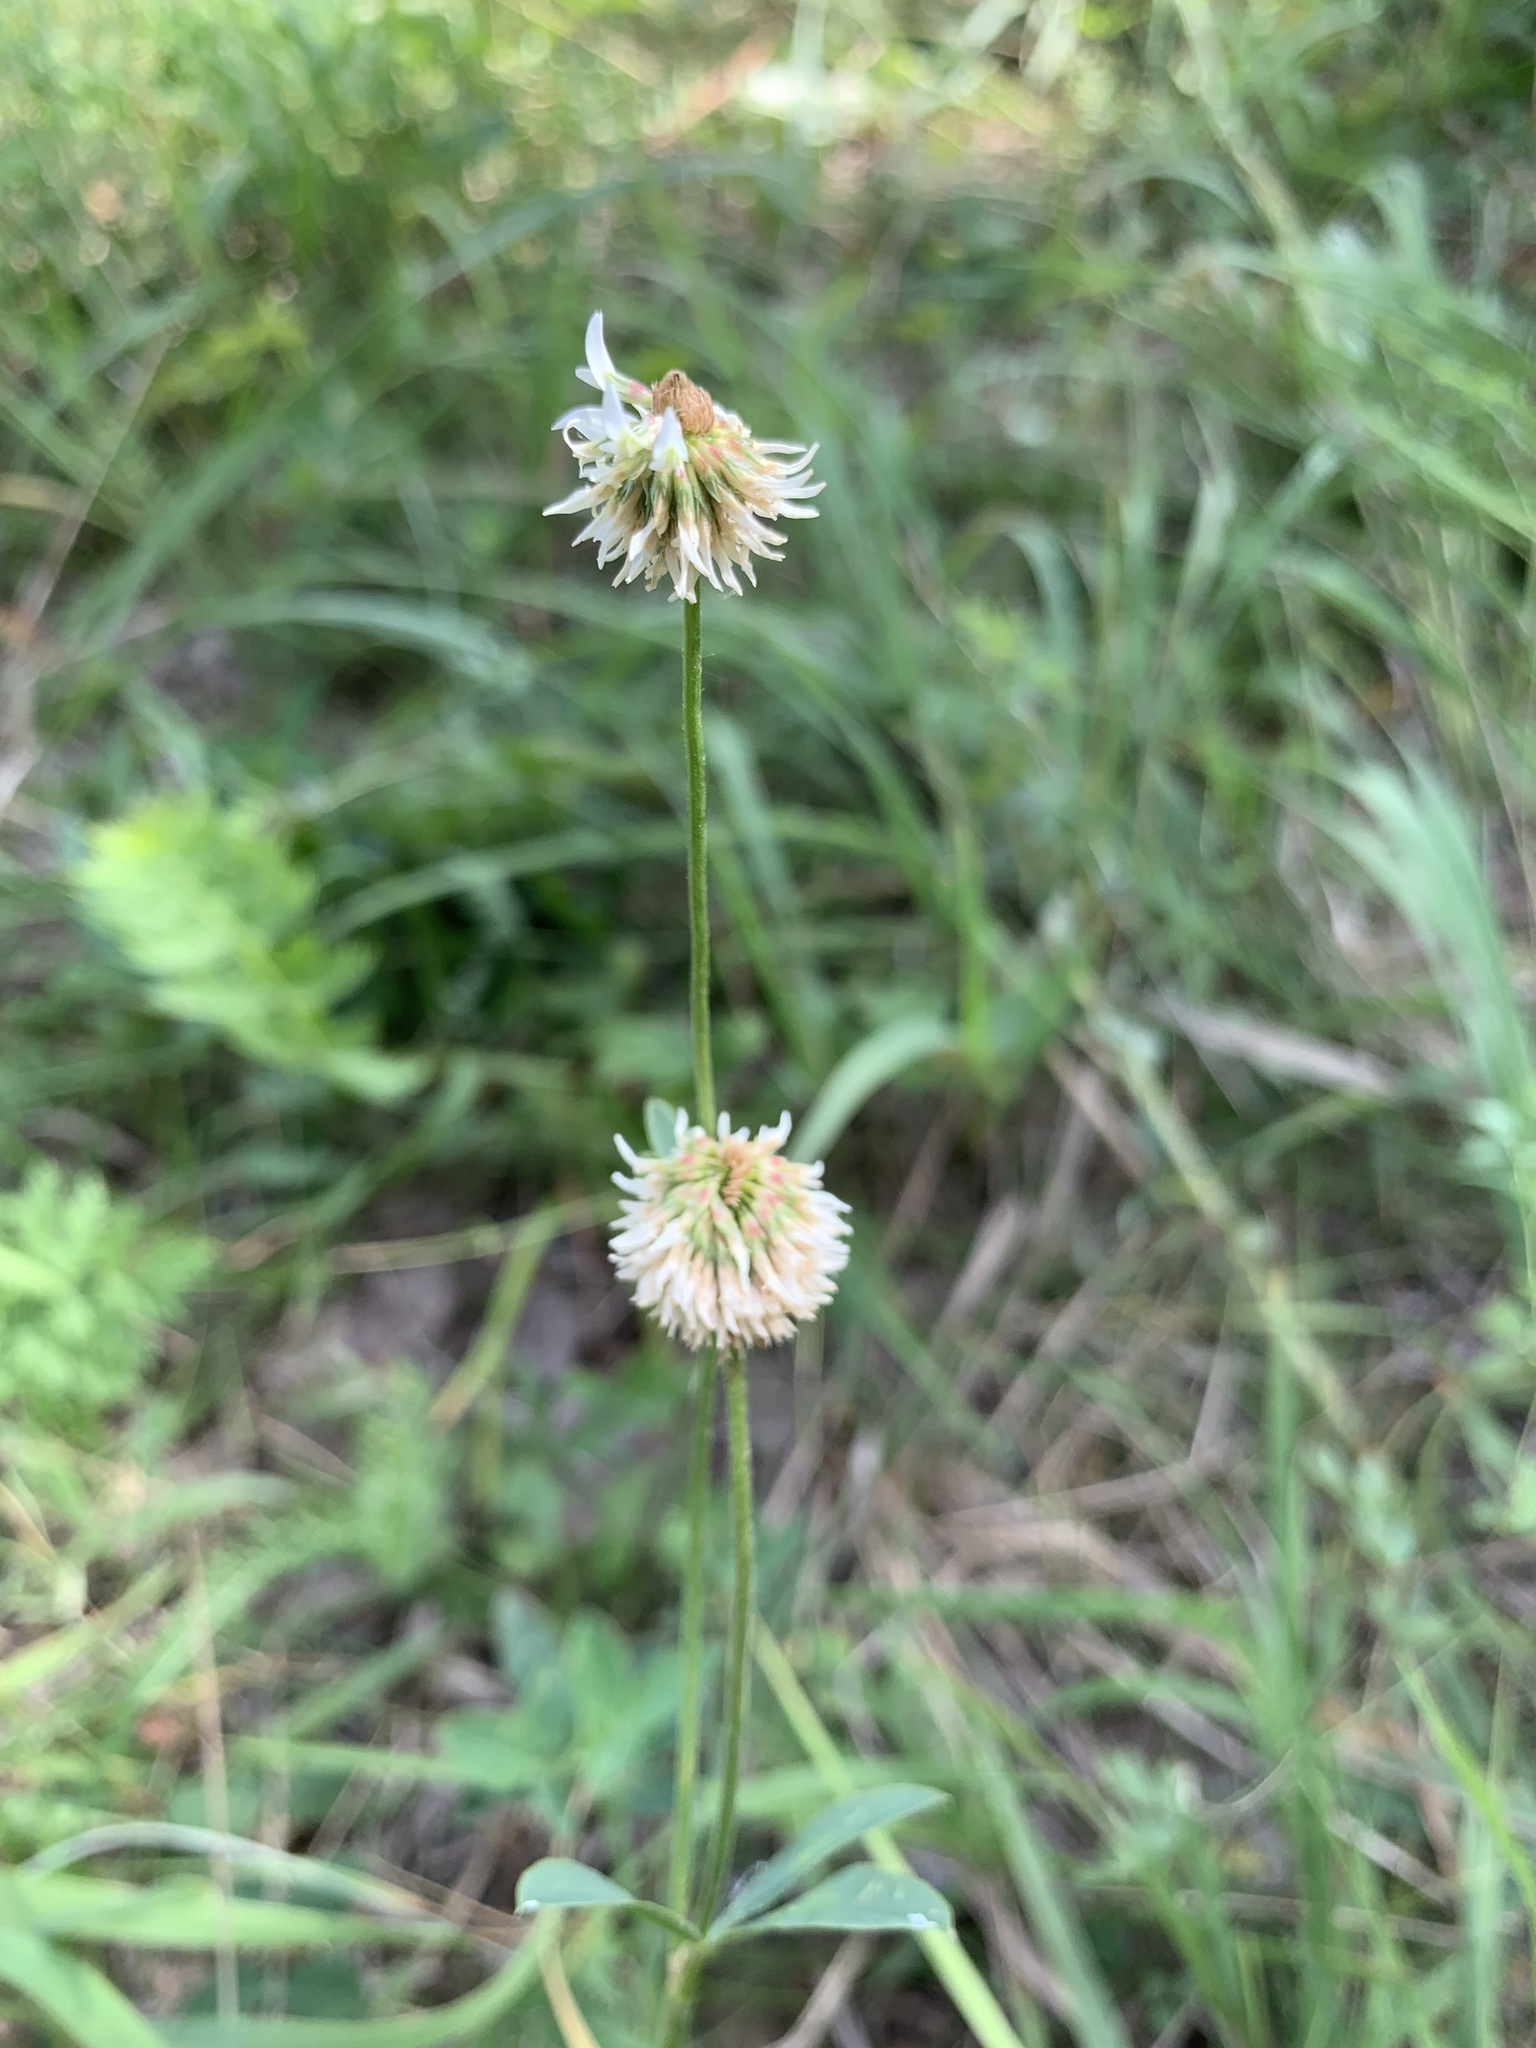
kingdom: Plantae
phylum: Tracheophyta
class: Magnoliopsida
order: Fabales
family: Fabaceae
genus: Trifolium
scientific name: Trifolium montanum
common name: Mountain clover
